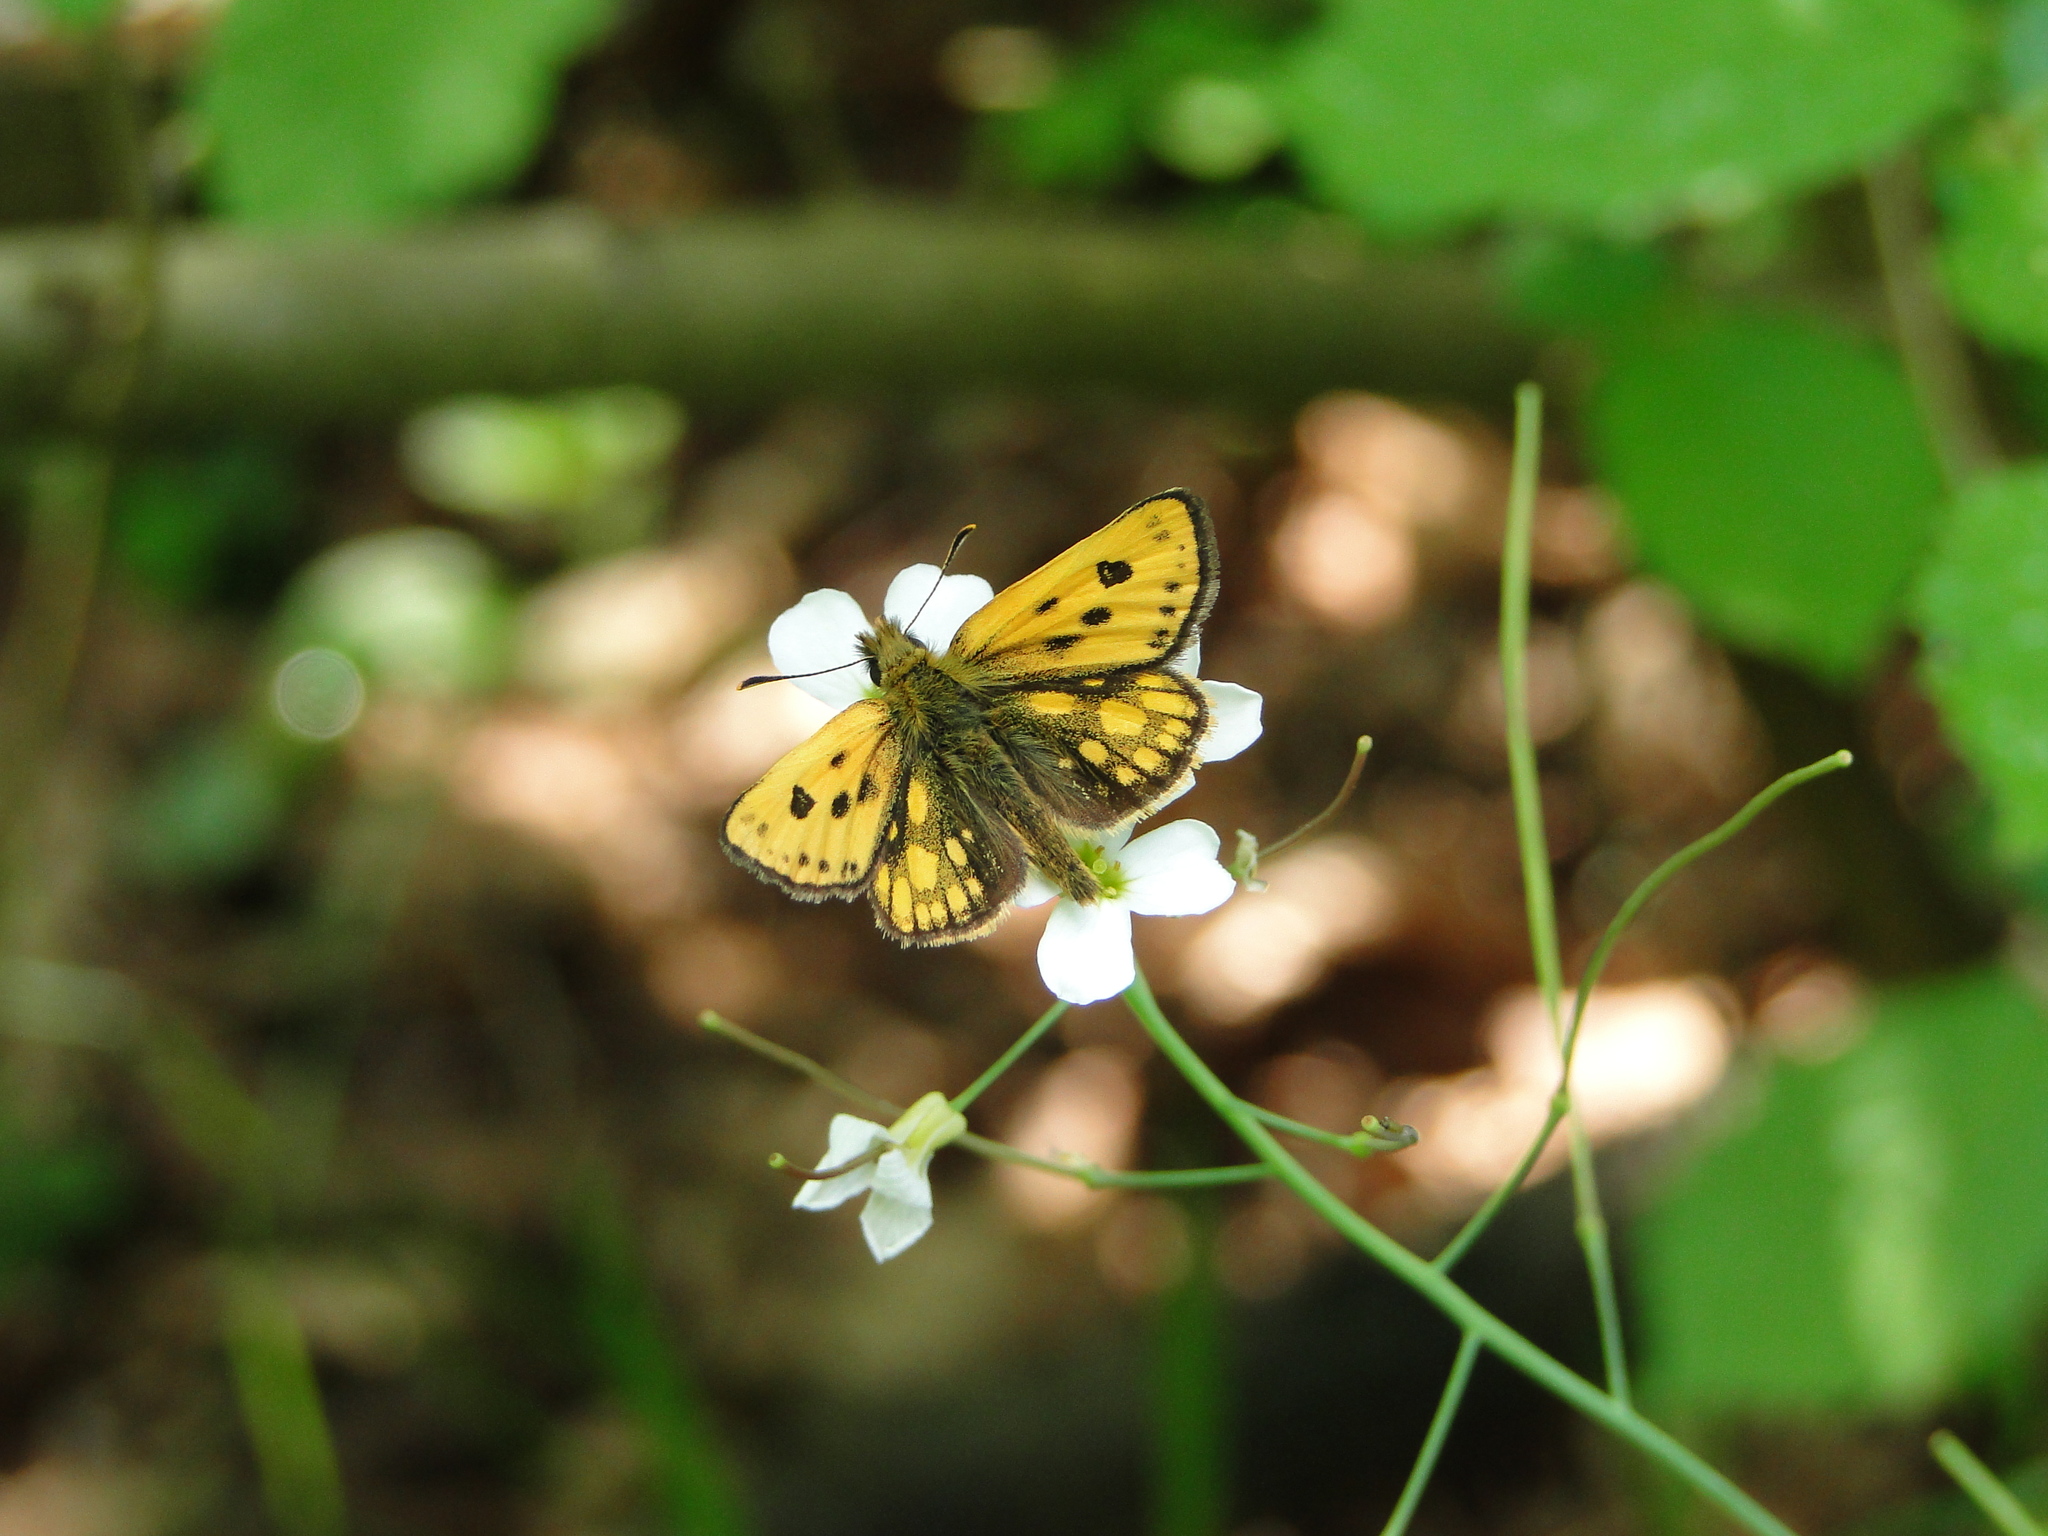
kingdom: Animalia
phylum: Arthropoda
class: Insecta
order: Lepidoptera
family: Hesperiidae
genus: Carterocephalus
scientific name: Carterocephalus silvicola
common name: Northern chequered skipper
